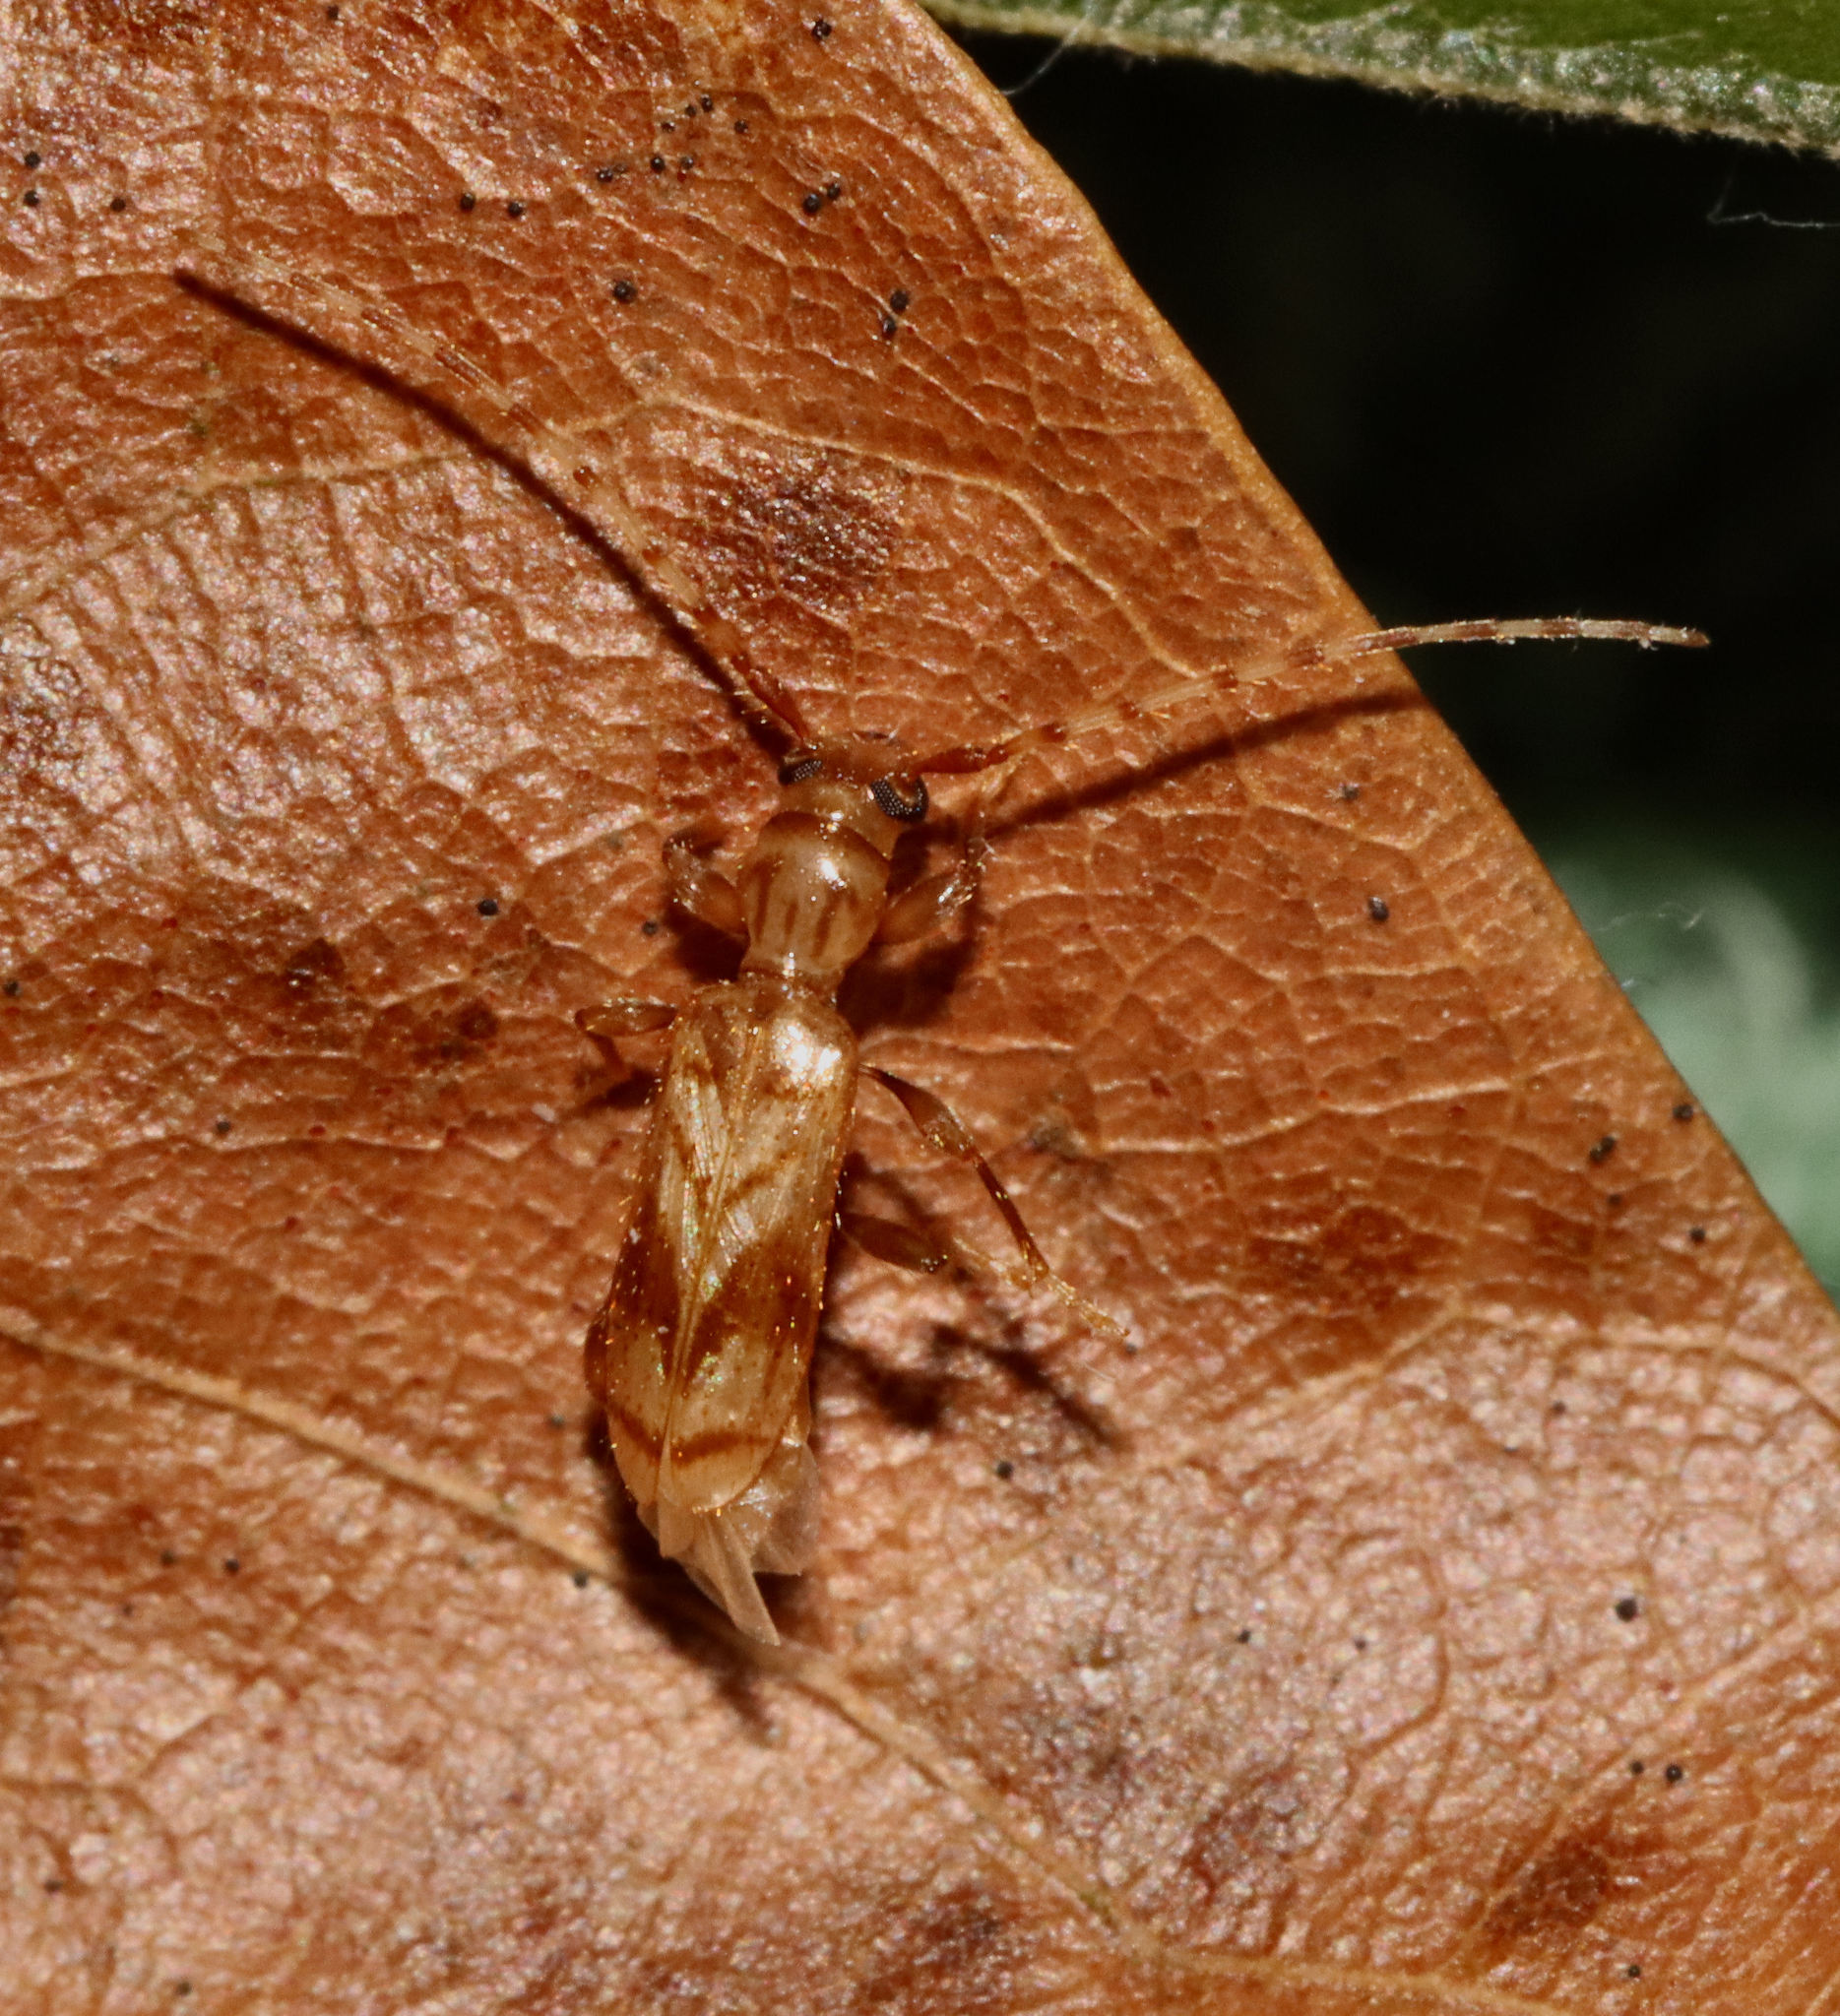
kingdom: Animalia
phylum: Arthropoda
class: Insecta
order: Coleoptera
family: Cerambycidae
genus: Obrium
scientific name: Obrium maculatum
